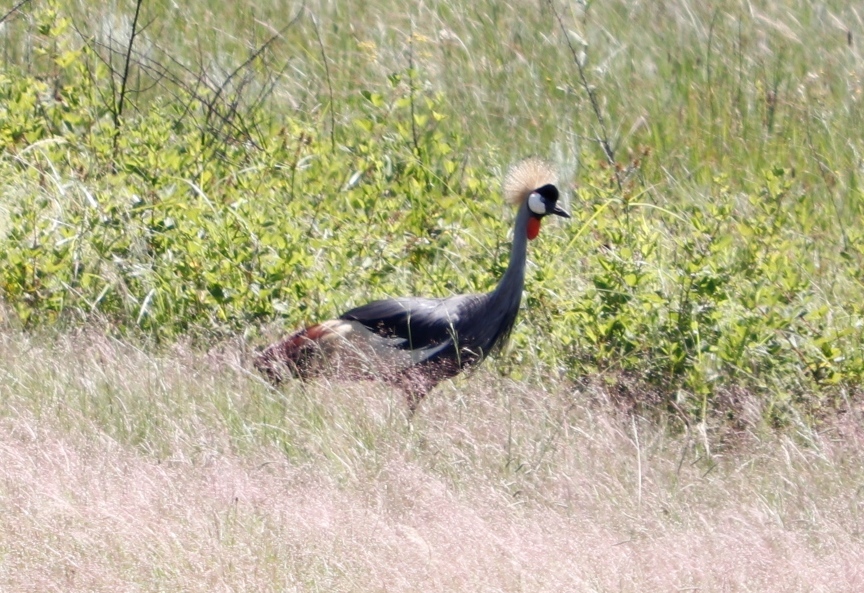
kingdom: Animalia
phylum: Chordata
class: Aves
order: Gruiformes
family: Gruidae
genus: Balearica
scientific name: Balearica regulorum
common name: Grey crowned crane
